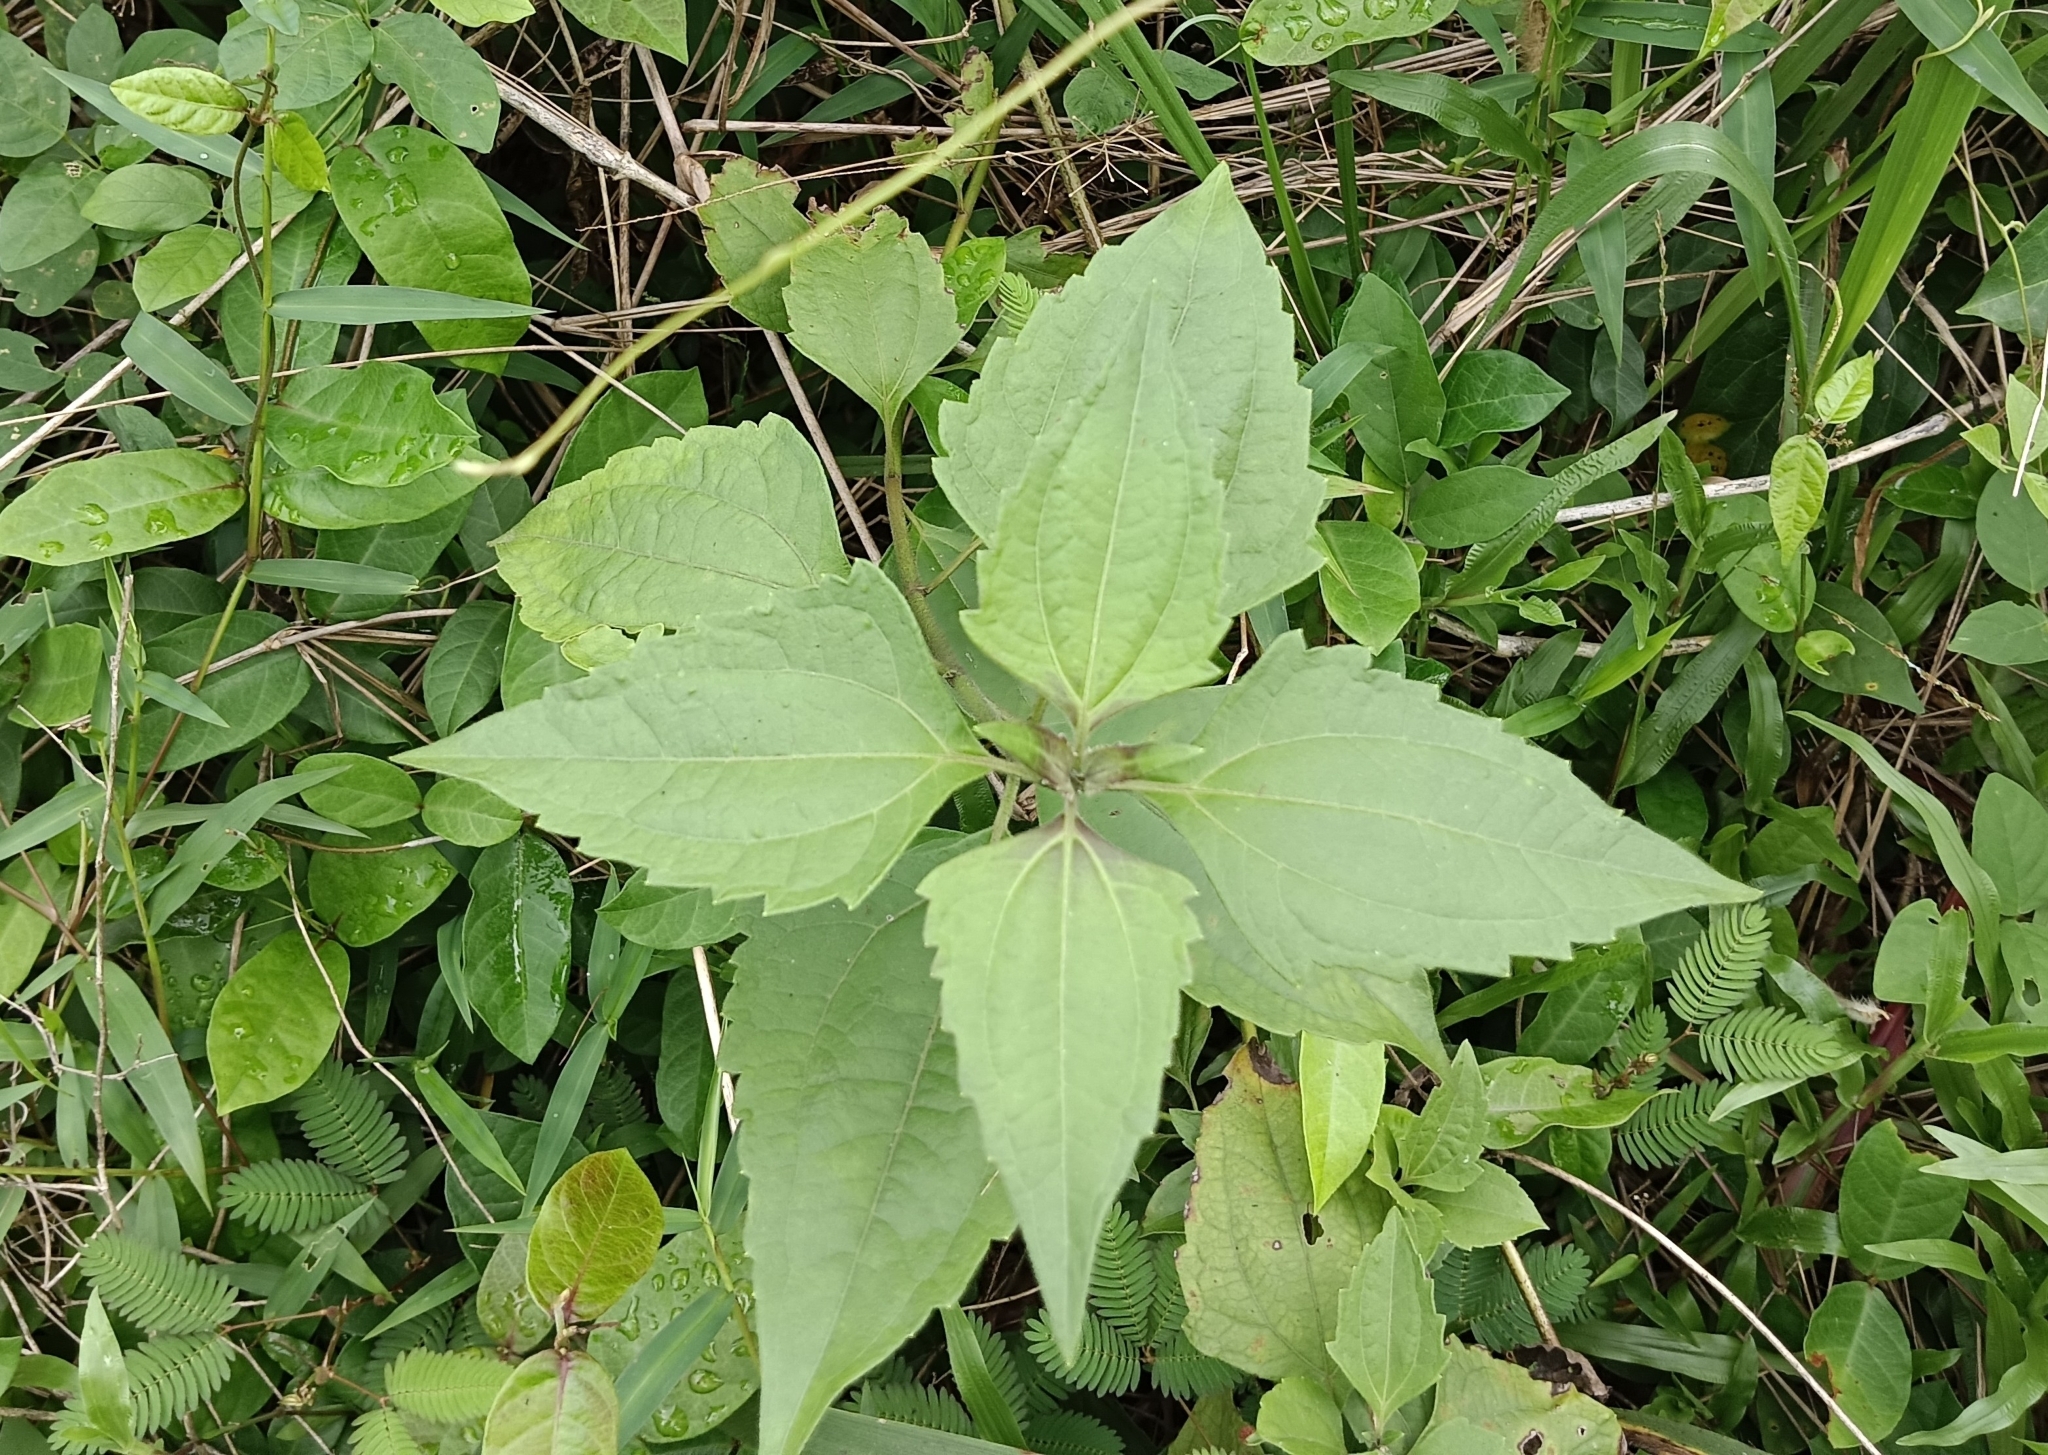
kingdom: Plantae
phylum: Tracheophyta
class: Magnoliopsida
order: Asterales
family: Asteraceae
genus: Chromolaena
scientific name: Chromolaena odorata
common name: Siamweed
